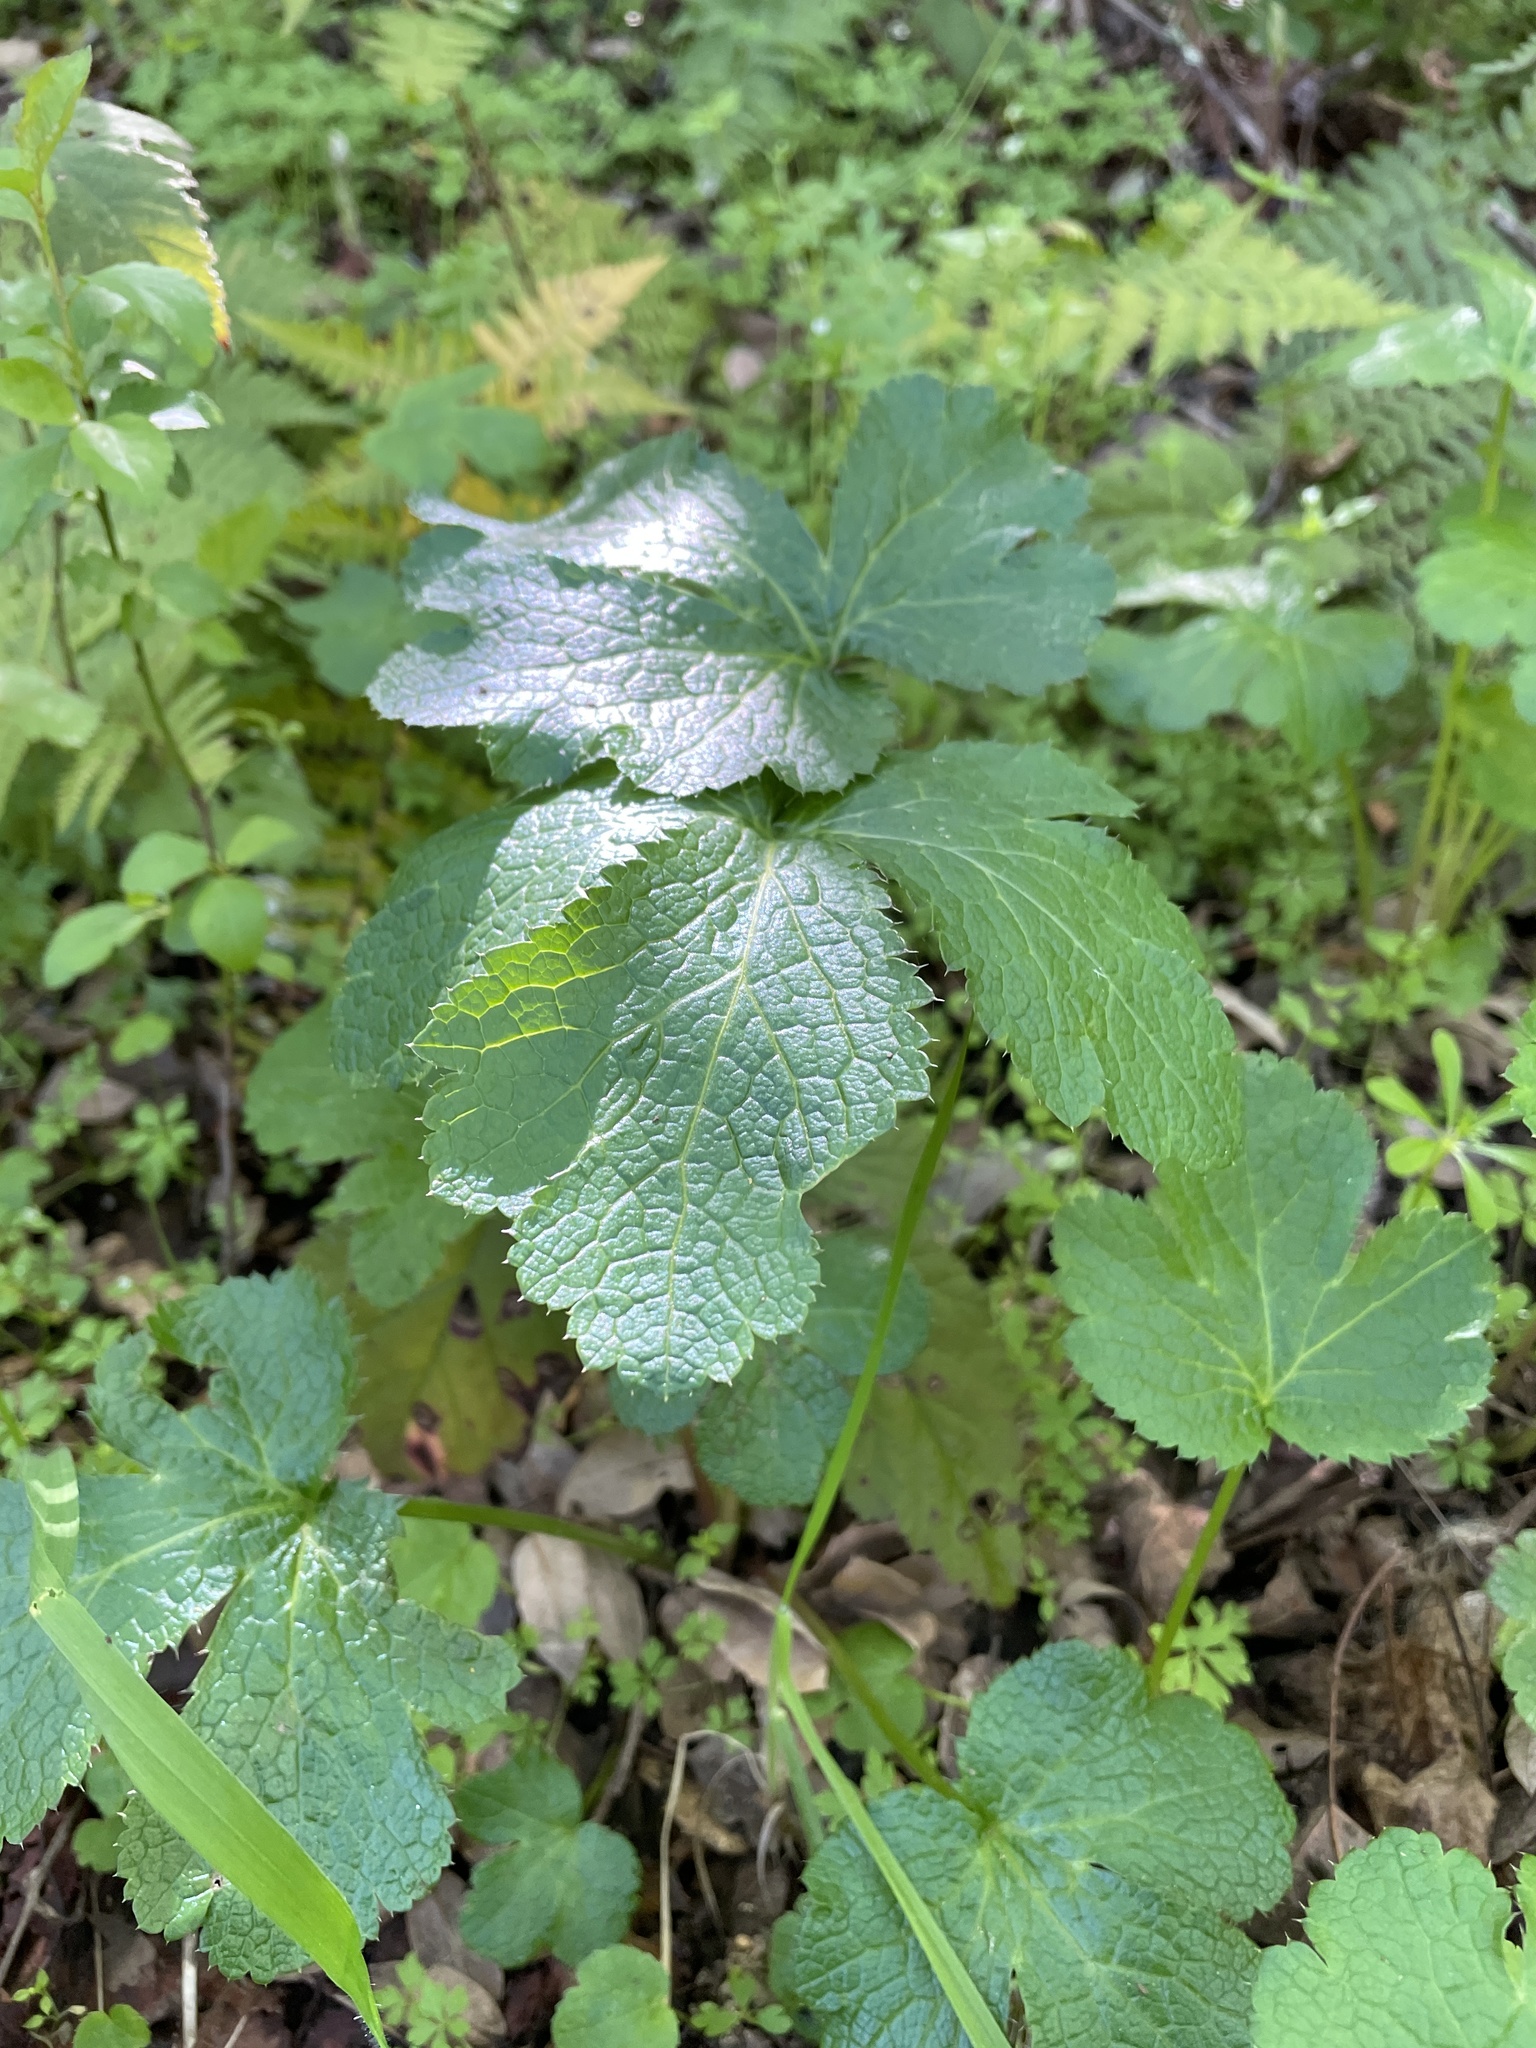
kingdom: Plantae
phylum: Tracheophyta
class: Magnoliopsida
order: Apiales
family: Apiaceae
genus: Sanicula
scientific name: Sanicula crassicaulis
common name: Western snakeroot
